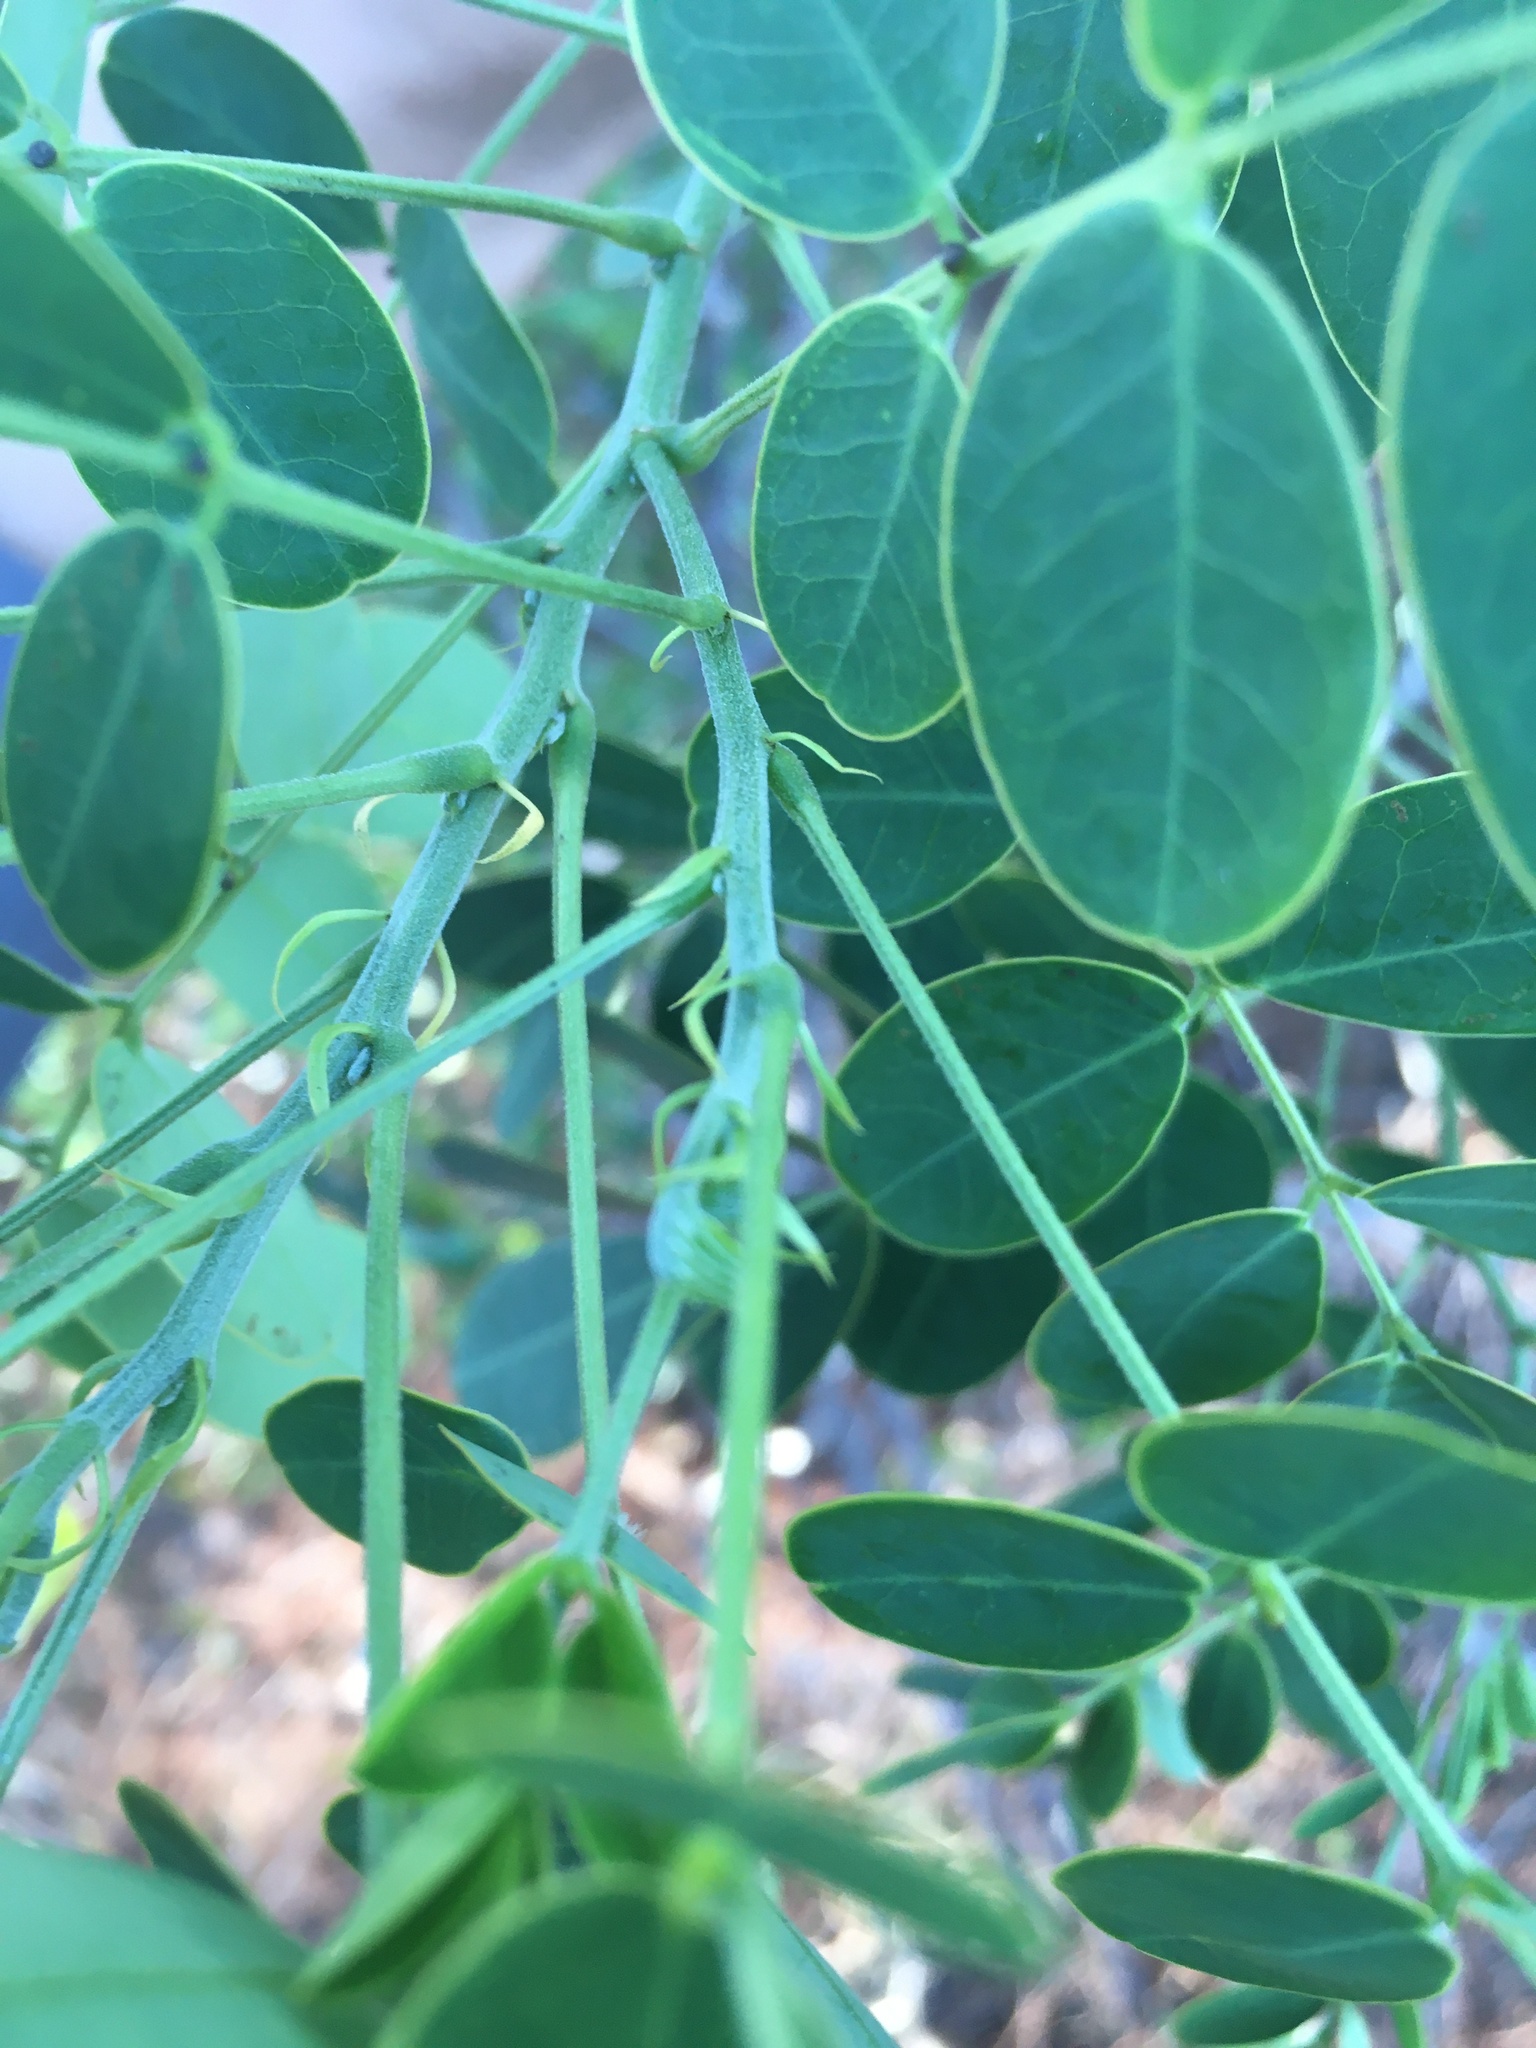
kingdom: Plantae
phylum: Tracheophyta
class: Magnoliopsida
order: Fabales
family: Fabaceae
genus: Senna
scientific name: Senna pendula
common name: Easter cassia
